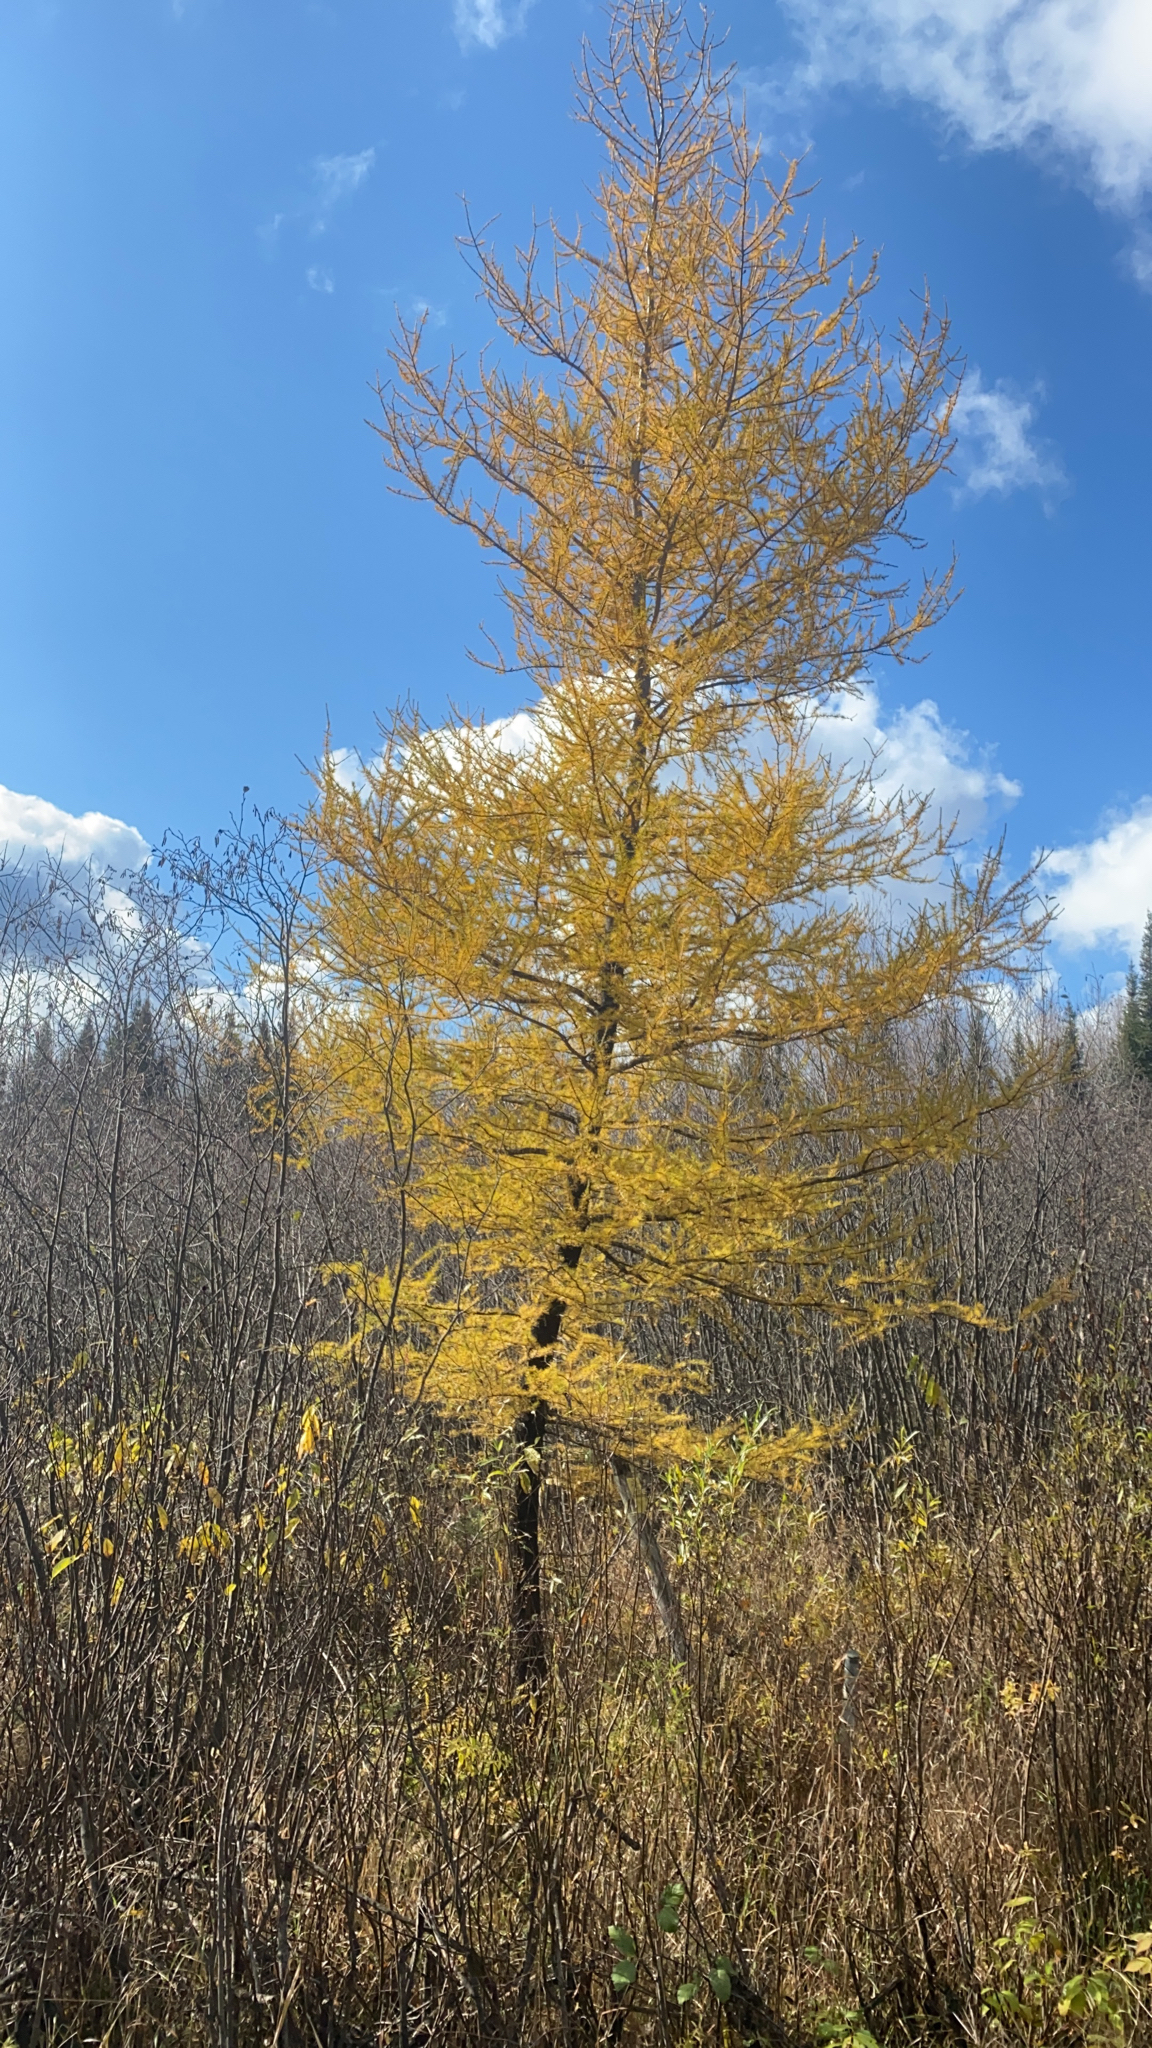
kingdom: Plantae
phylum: Tracheophyta
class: Pinopsida
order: Pinales
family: Pinaceae
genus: Larix
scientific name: Larix laricina
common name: American larch
